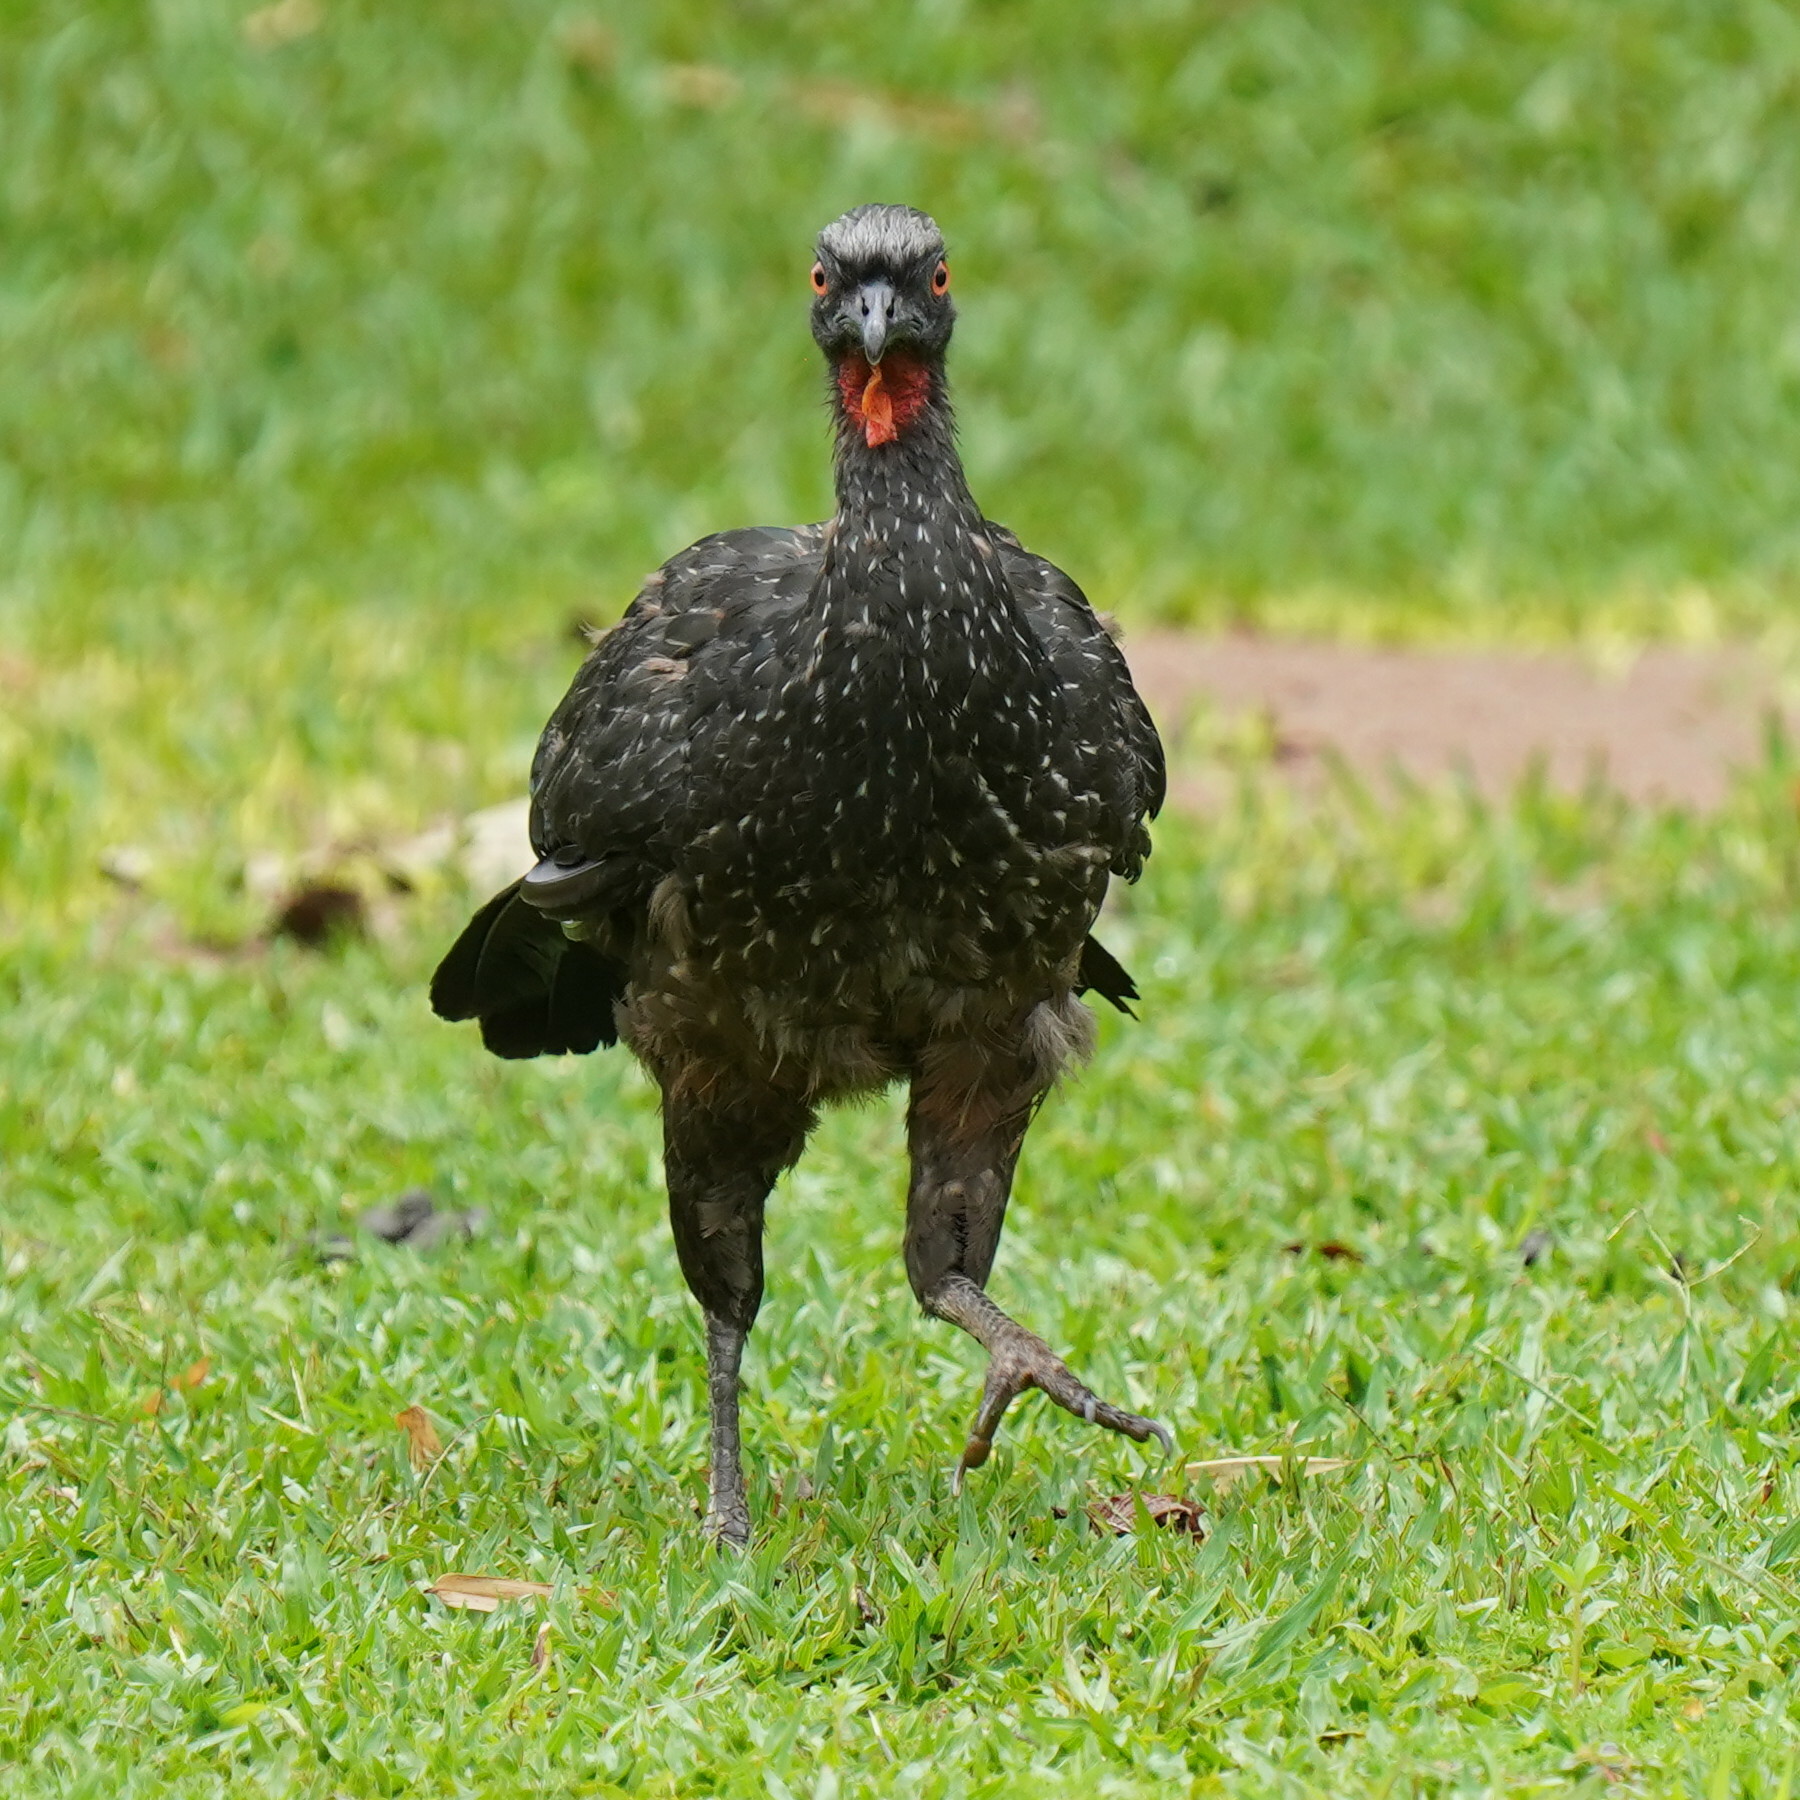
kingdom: Animalia
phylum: Chordata
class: Aves
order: Galliformes
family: Cracidae
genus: Penelope
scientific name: Penelope obscura
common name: Dusky-legged guan
